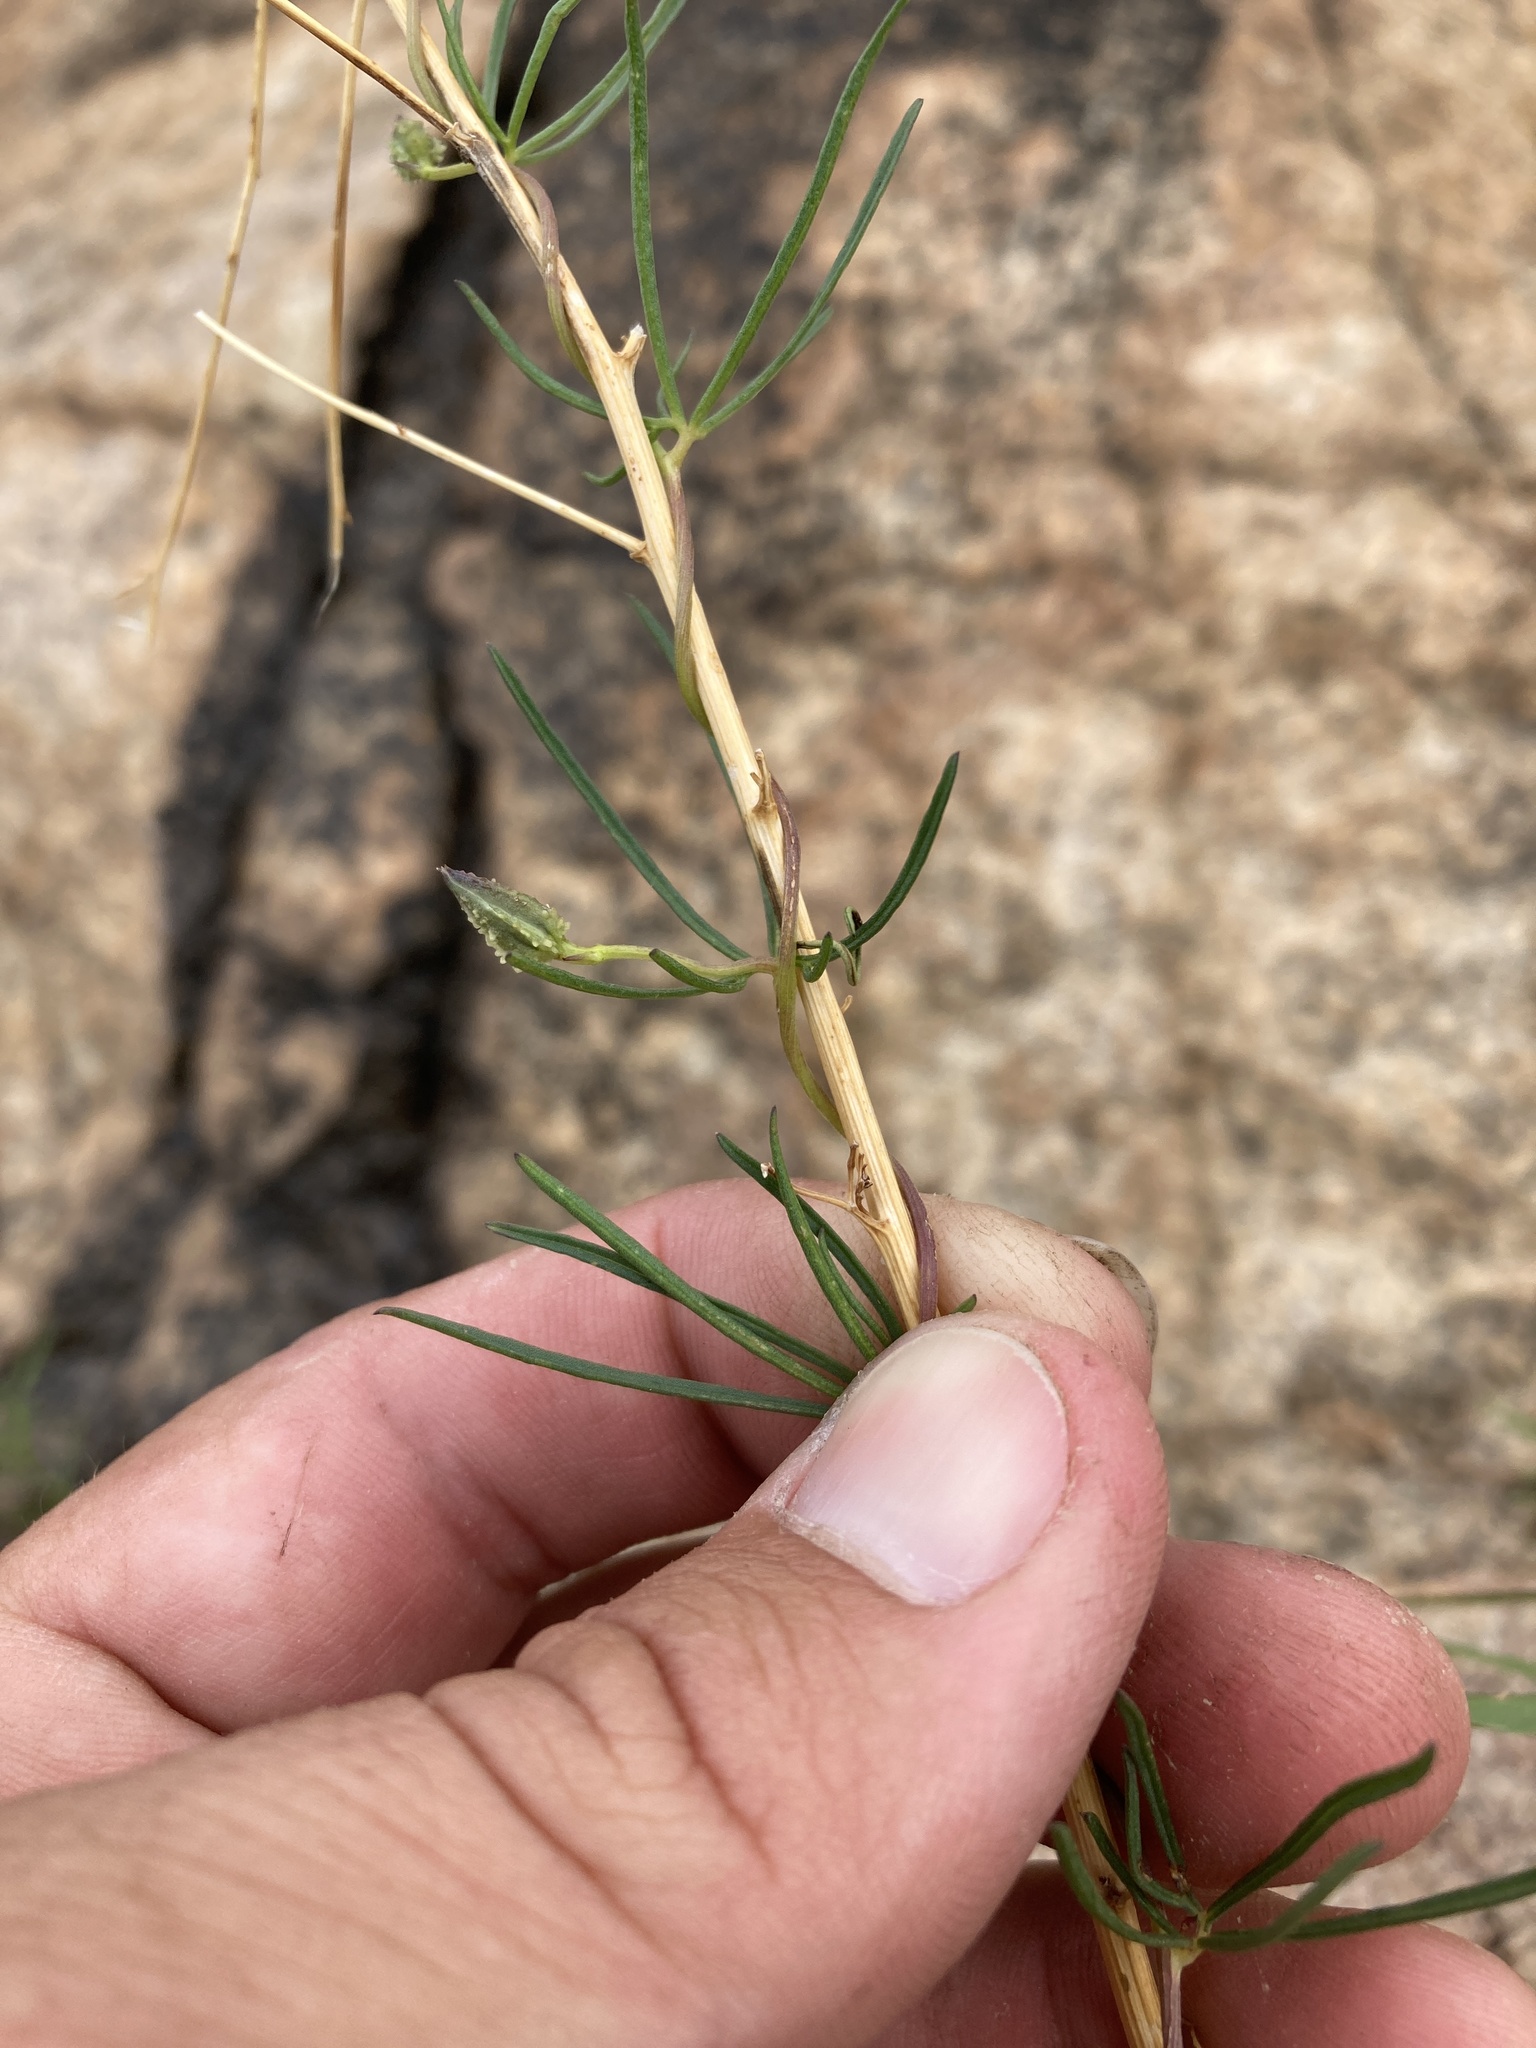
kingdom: Plantae
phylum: Tracheophyta
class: Magnoliopsida
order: Solanales
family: Convolvulaceae
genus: Ipomoea
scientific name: Ipomoea plummerae
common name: Plummer's morning-glory
